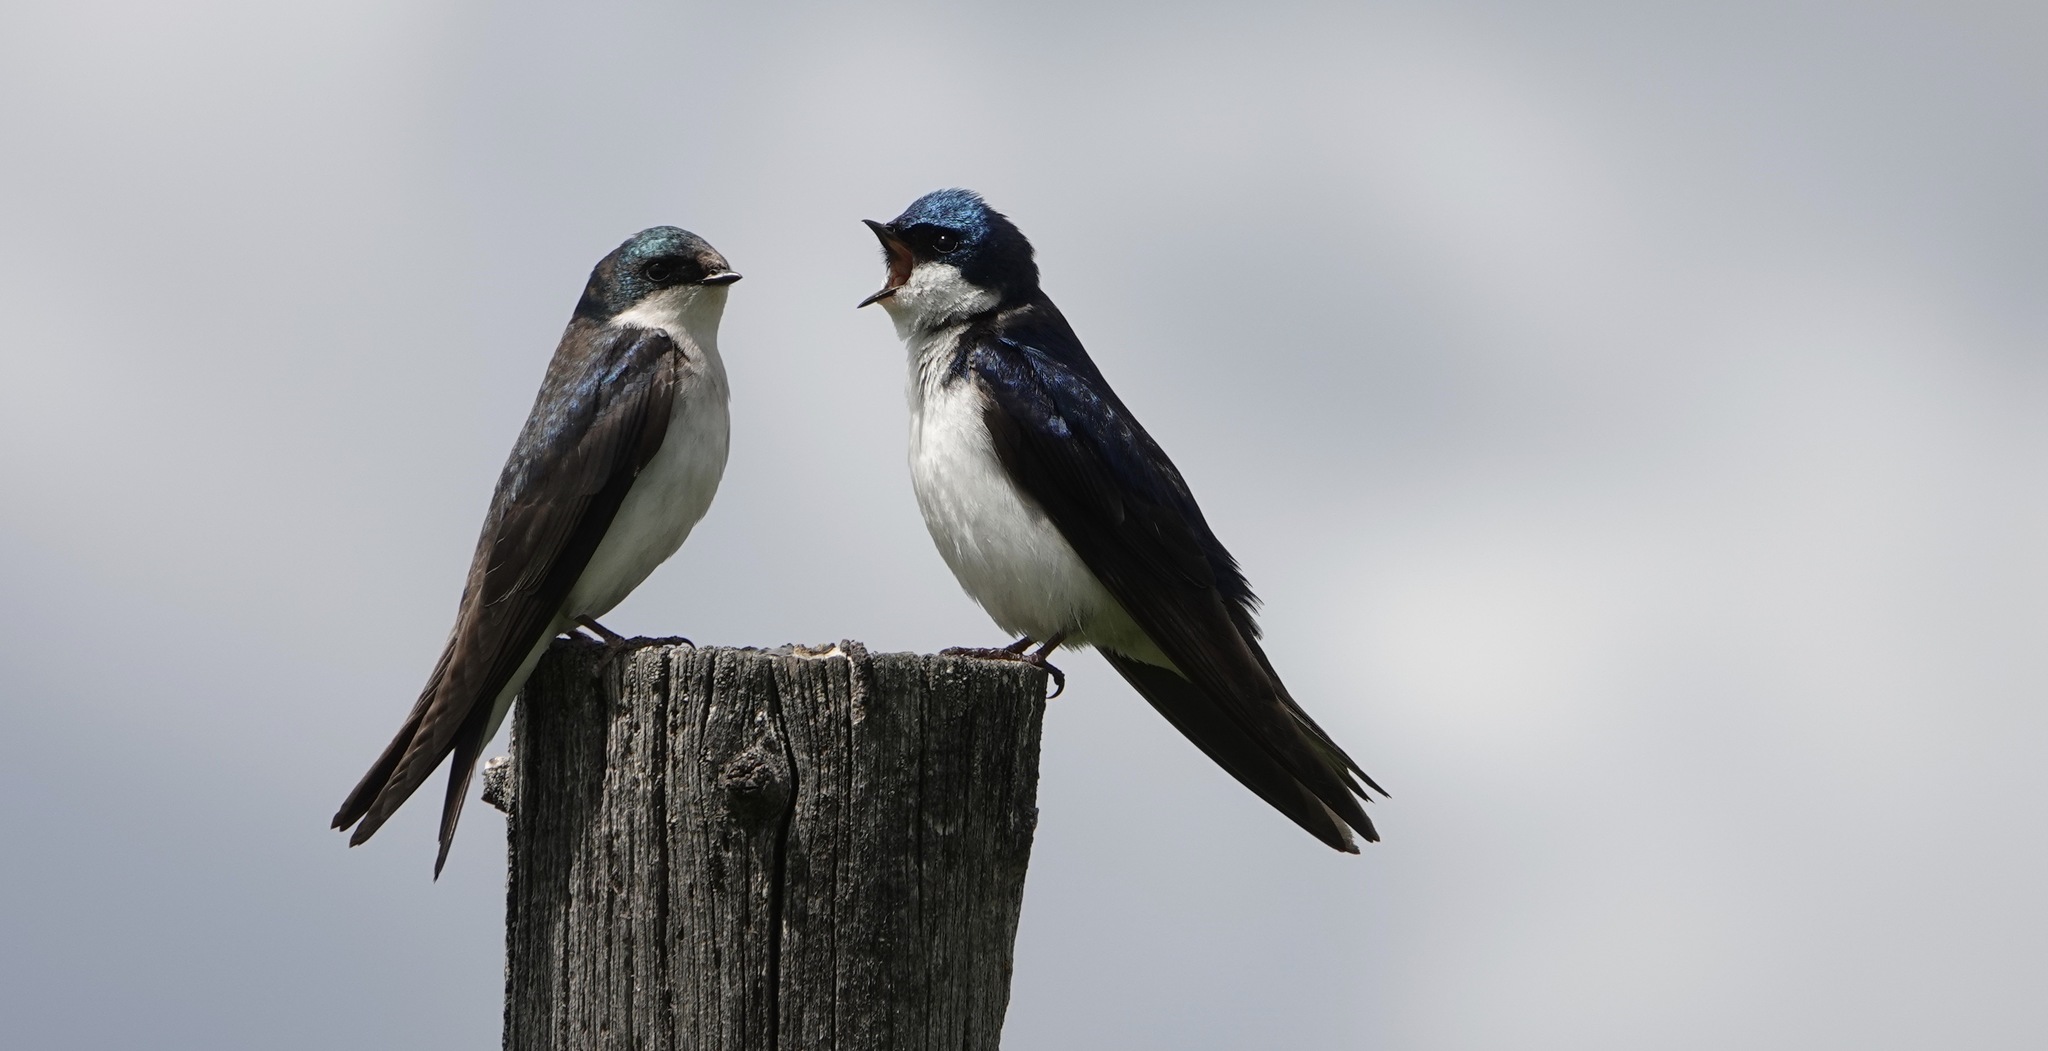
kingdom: Animalia
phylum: Chordata
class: Aves
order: Passeriformes
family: Hirundinidae
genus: Tachycineta
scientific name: Tachycineta bicolor
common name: Tree swallow
